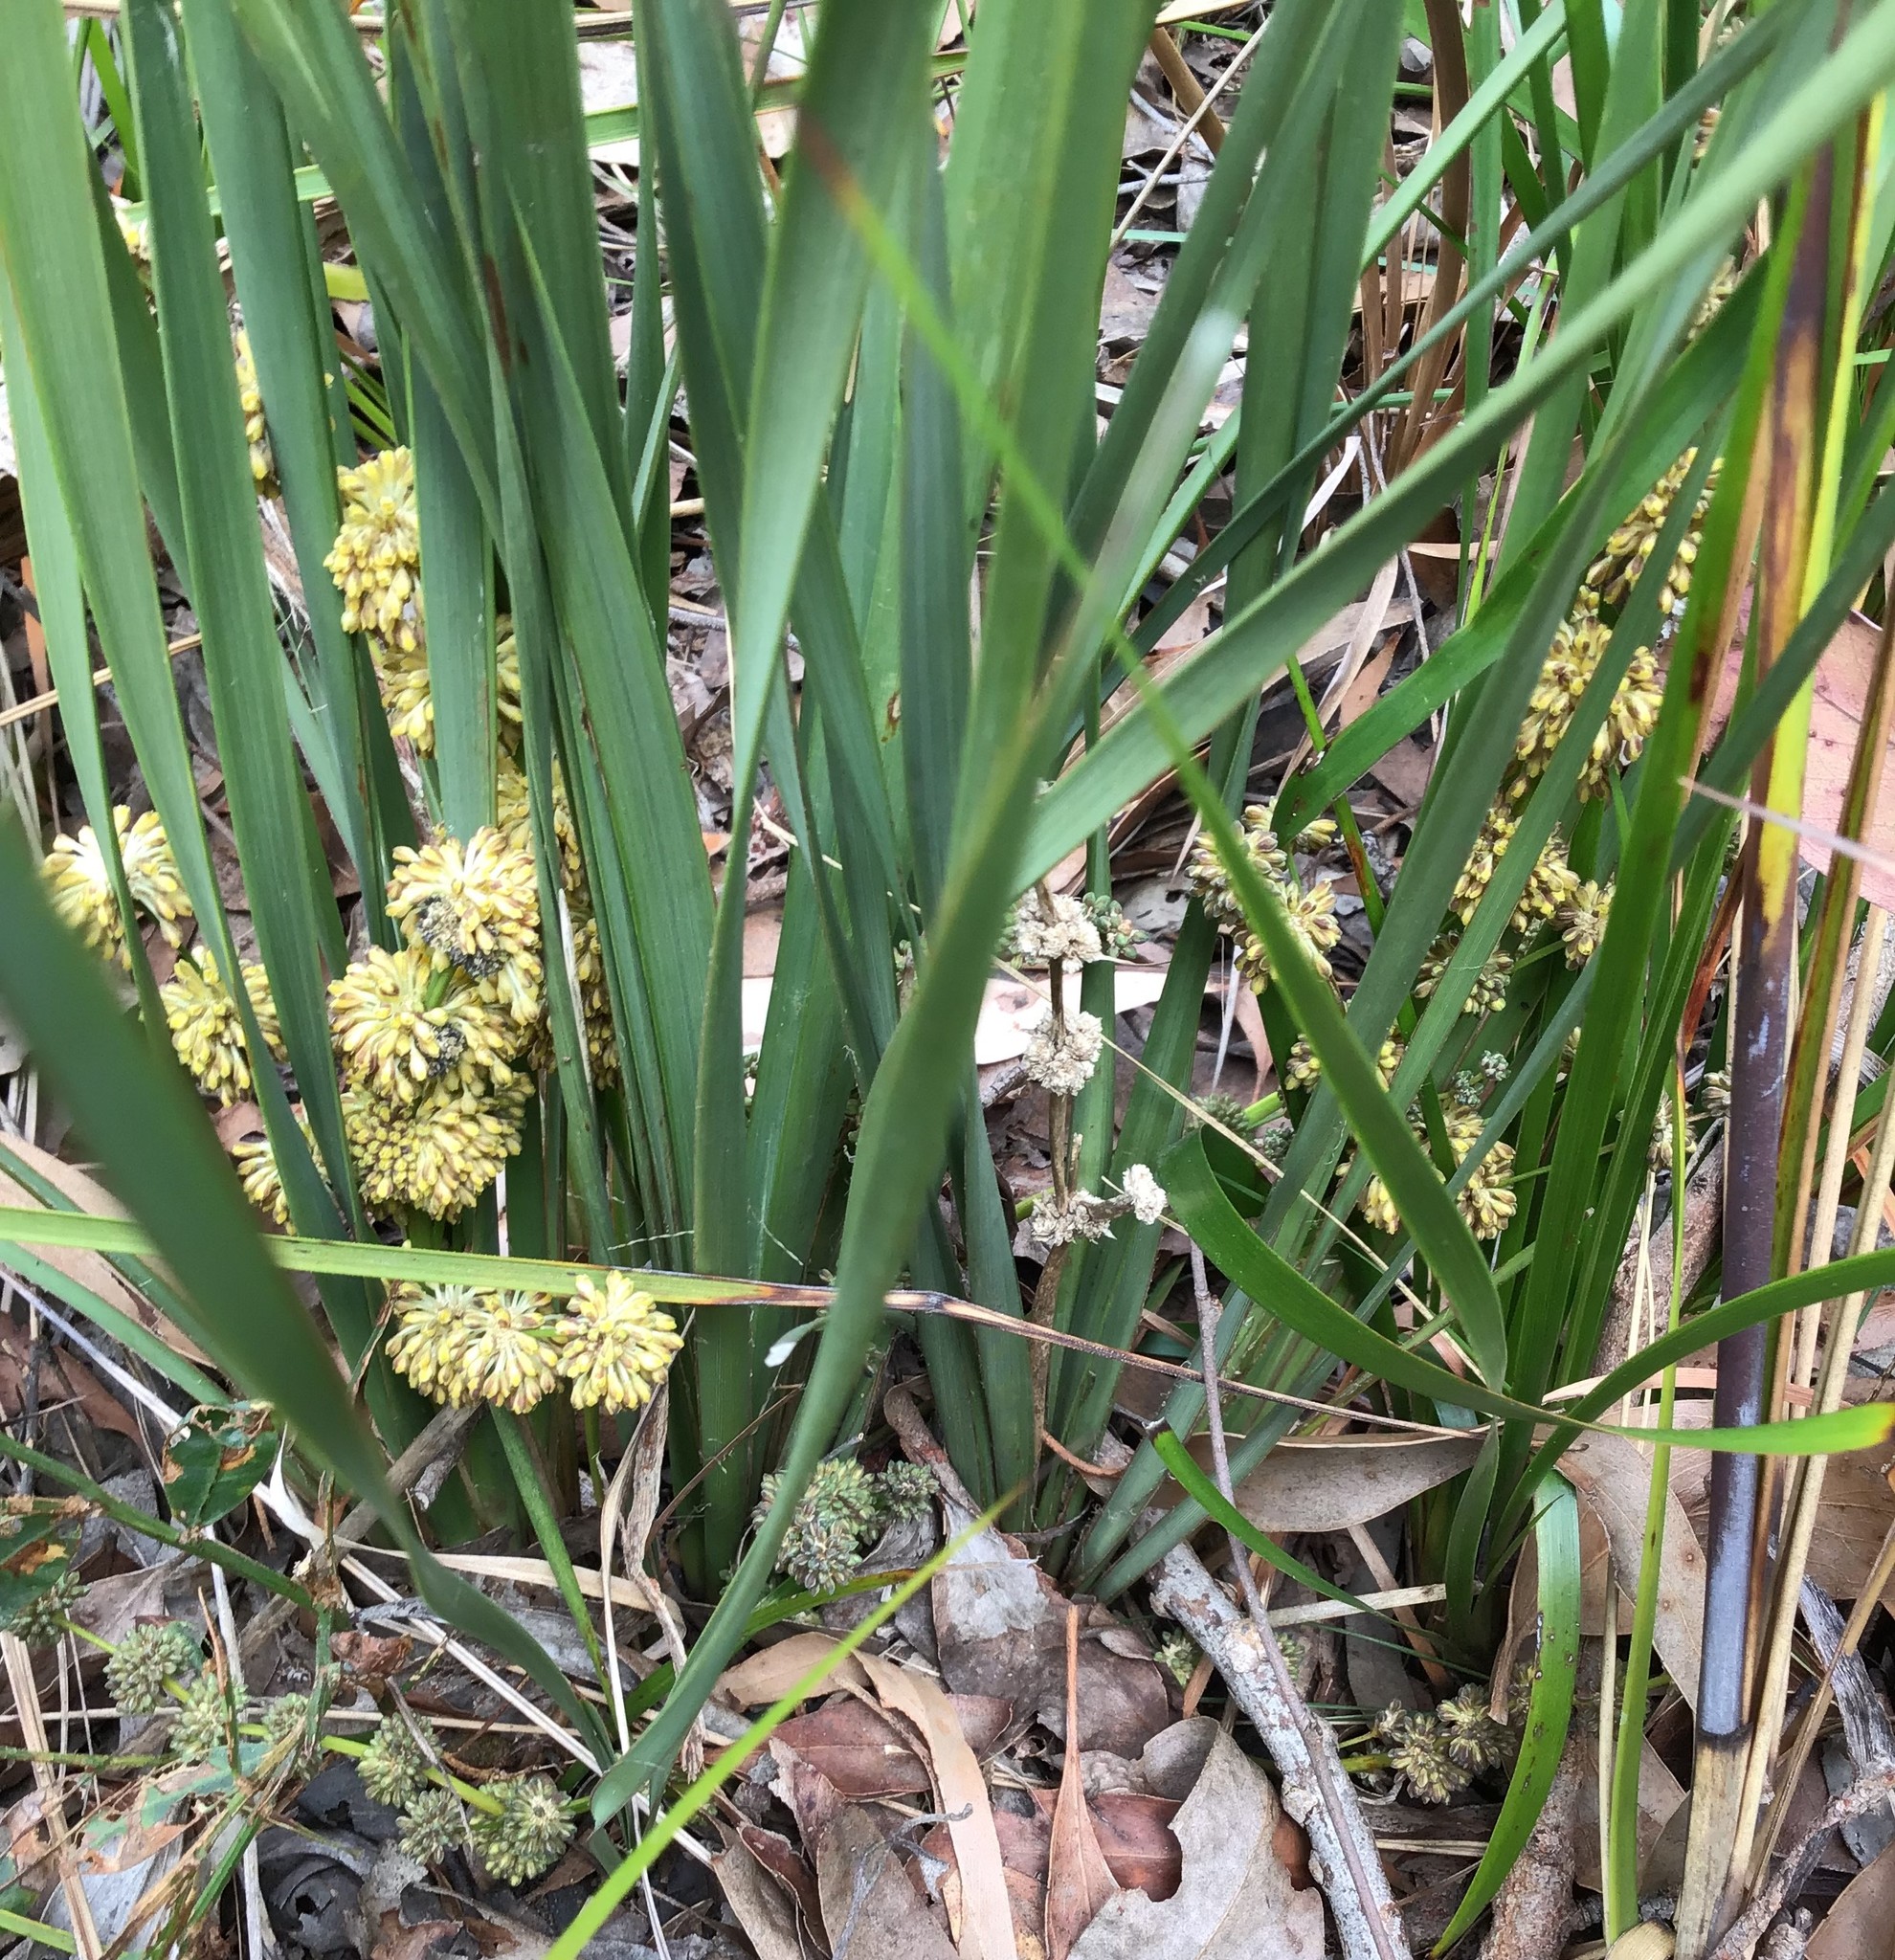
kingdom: Plantae
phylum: Tracheophyta
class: Liliopsida
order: Asparagales
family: Asparagaceae
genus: Lomandra
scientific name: Lomandra multiflora
